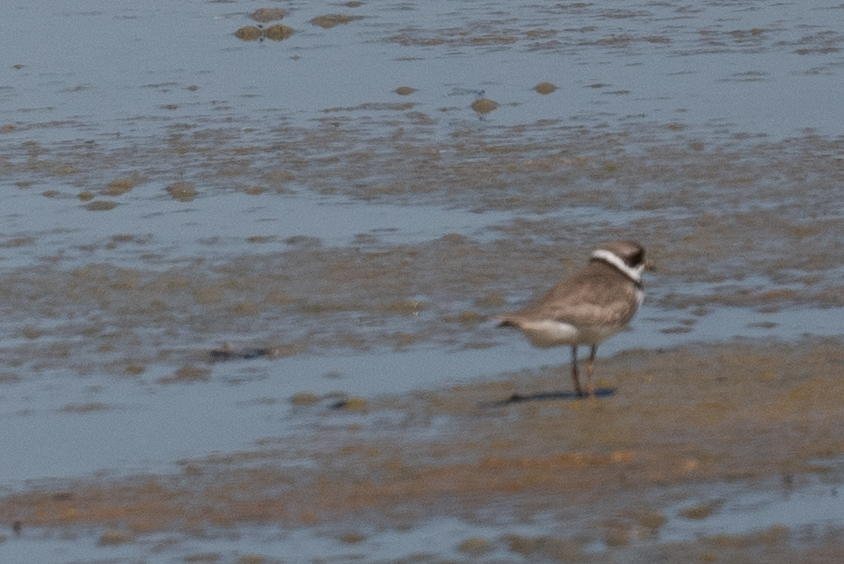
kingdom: Animalia
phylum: Chordata
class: Aves
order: Charadriiformes
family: Charadriidae
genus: Charadrius
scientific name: Charadrius semipalmatus
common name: Semipalmated plover
